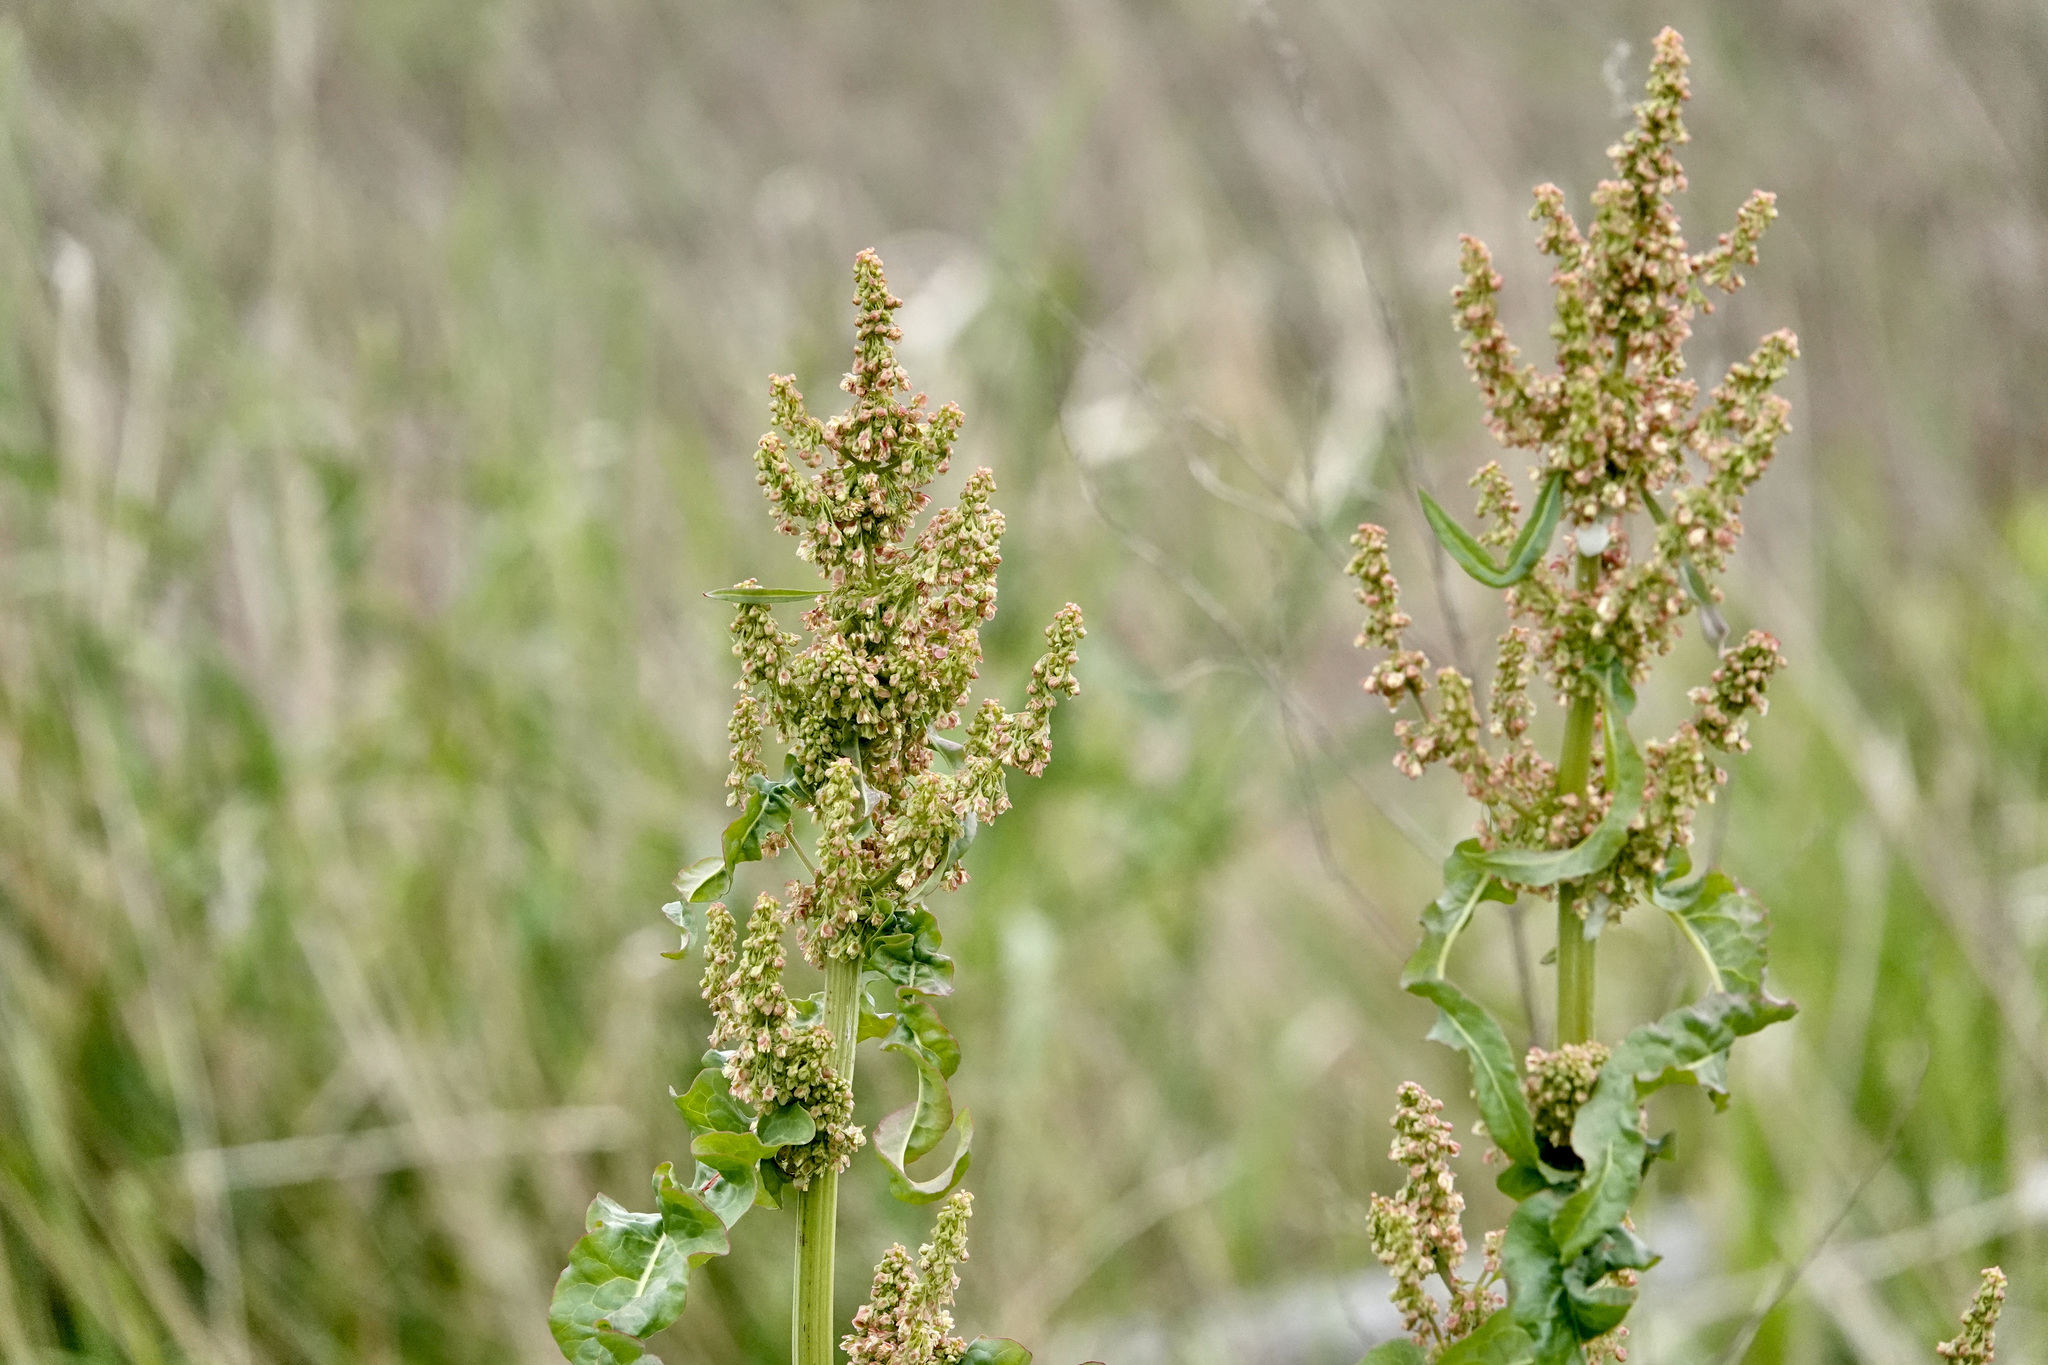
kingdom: Plantae
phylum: Tracheophyta
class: Magnoliopsida
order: Caryophyllales
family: Polygonaceae
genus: Rumex
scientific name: Rumex crispus
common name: Curled dock
